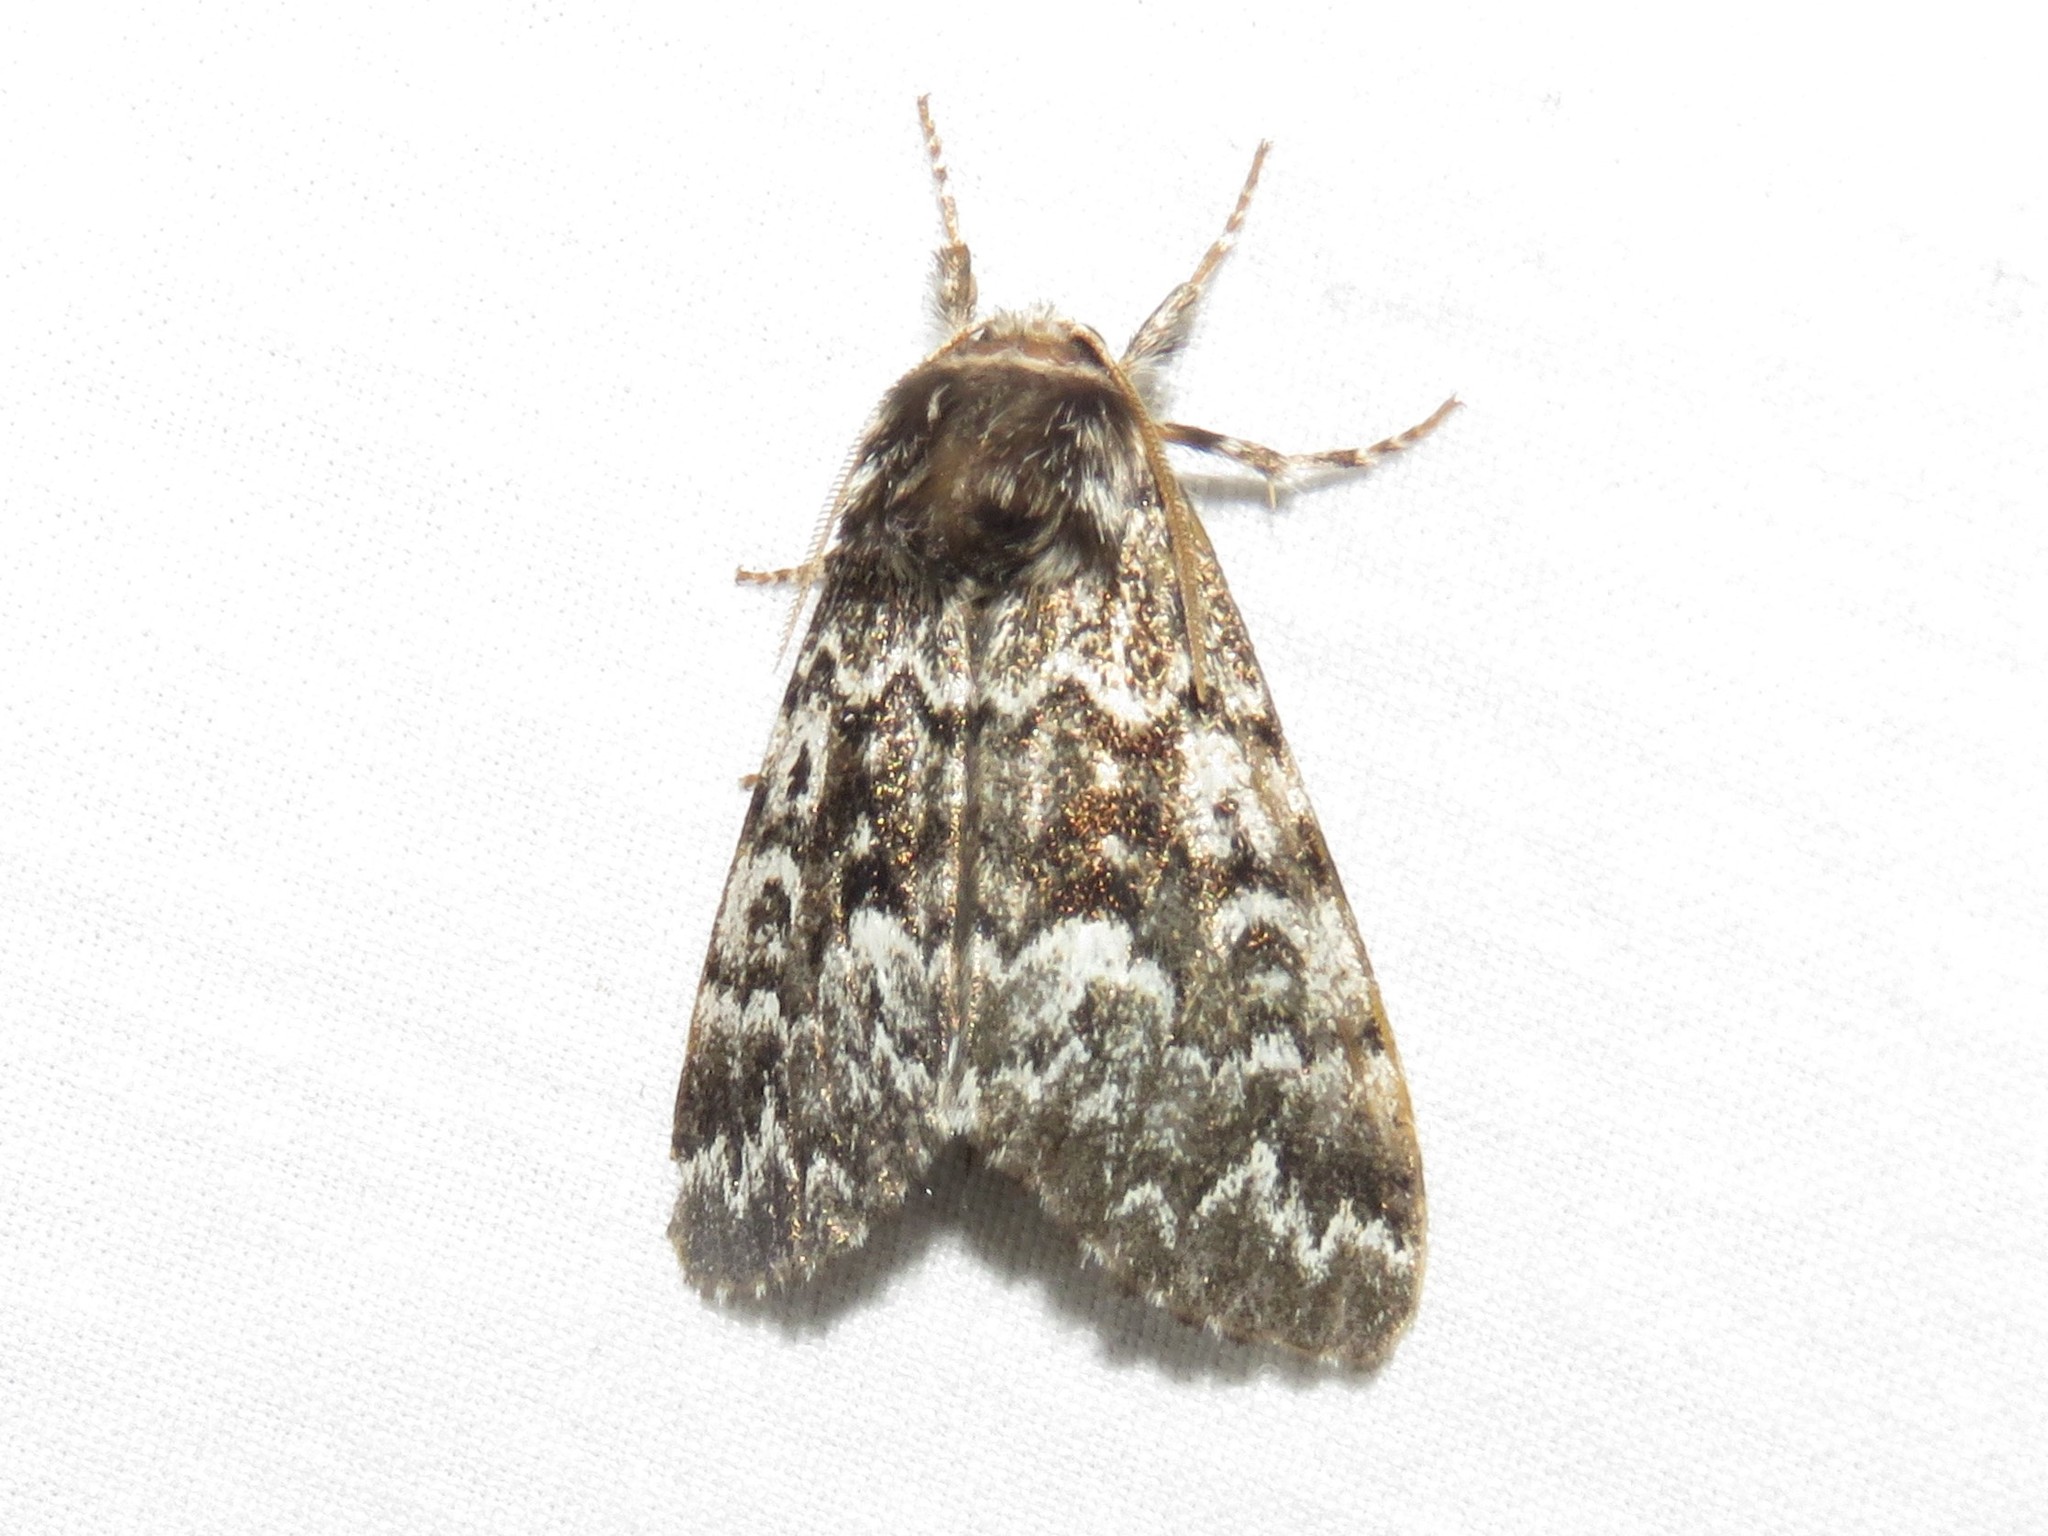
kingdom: Animalia
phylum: Arthropoda
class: Insecta
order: Lepidoptera
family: Noctuidae
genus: Panthea
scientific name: Panthea acronyctoides
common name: Black zigzag moth
